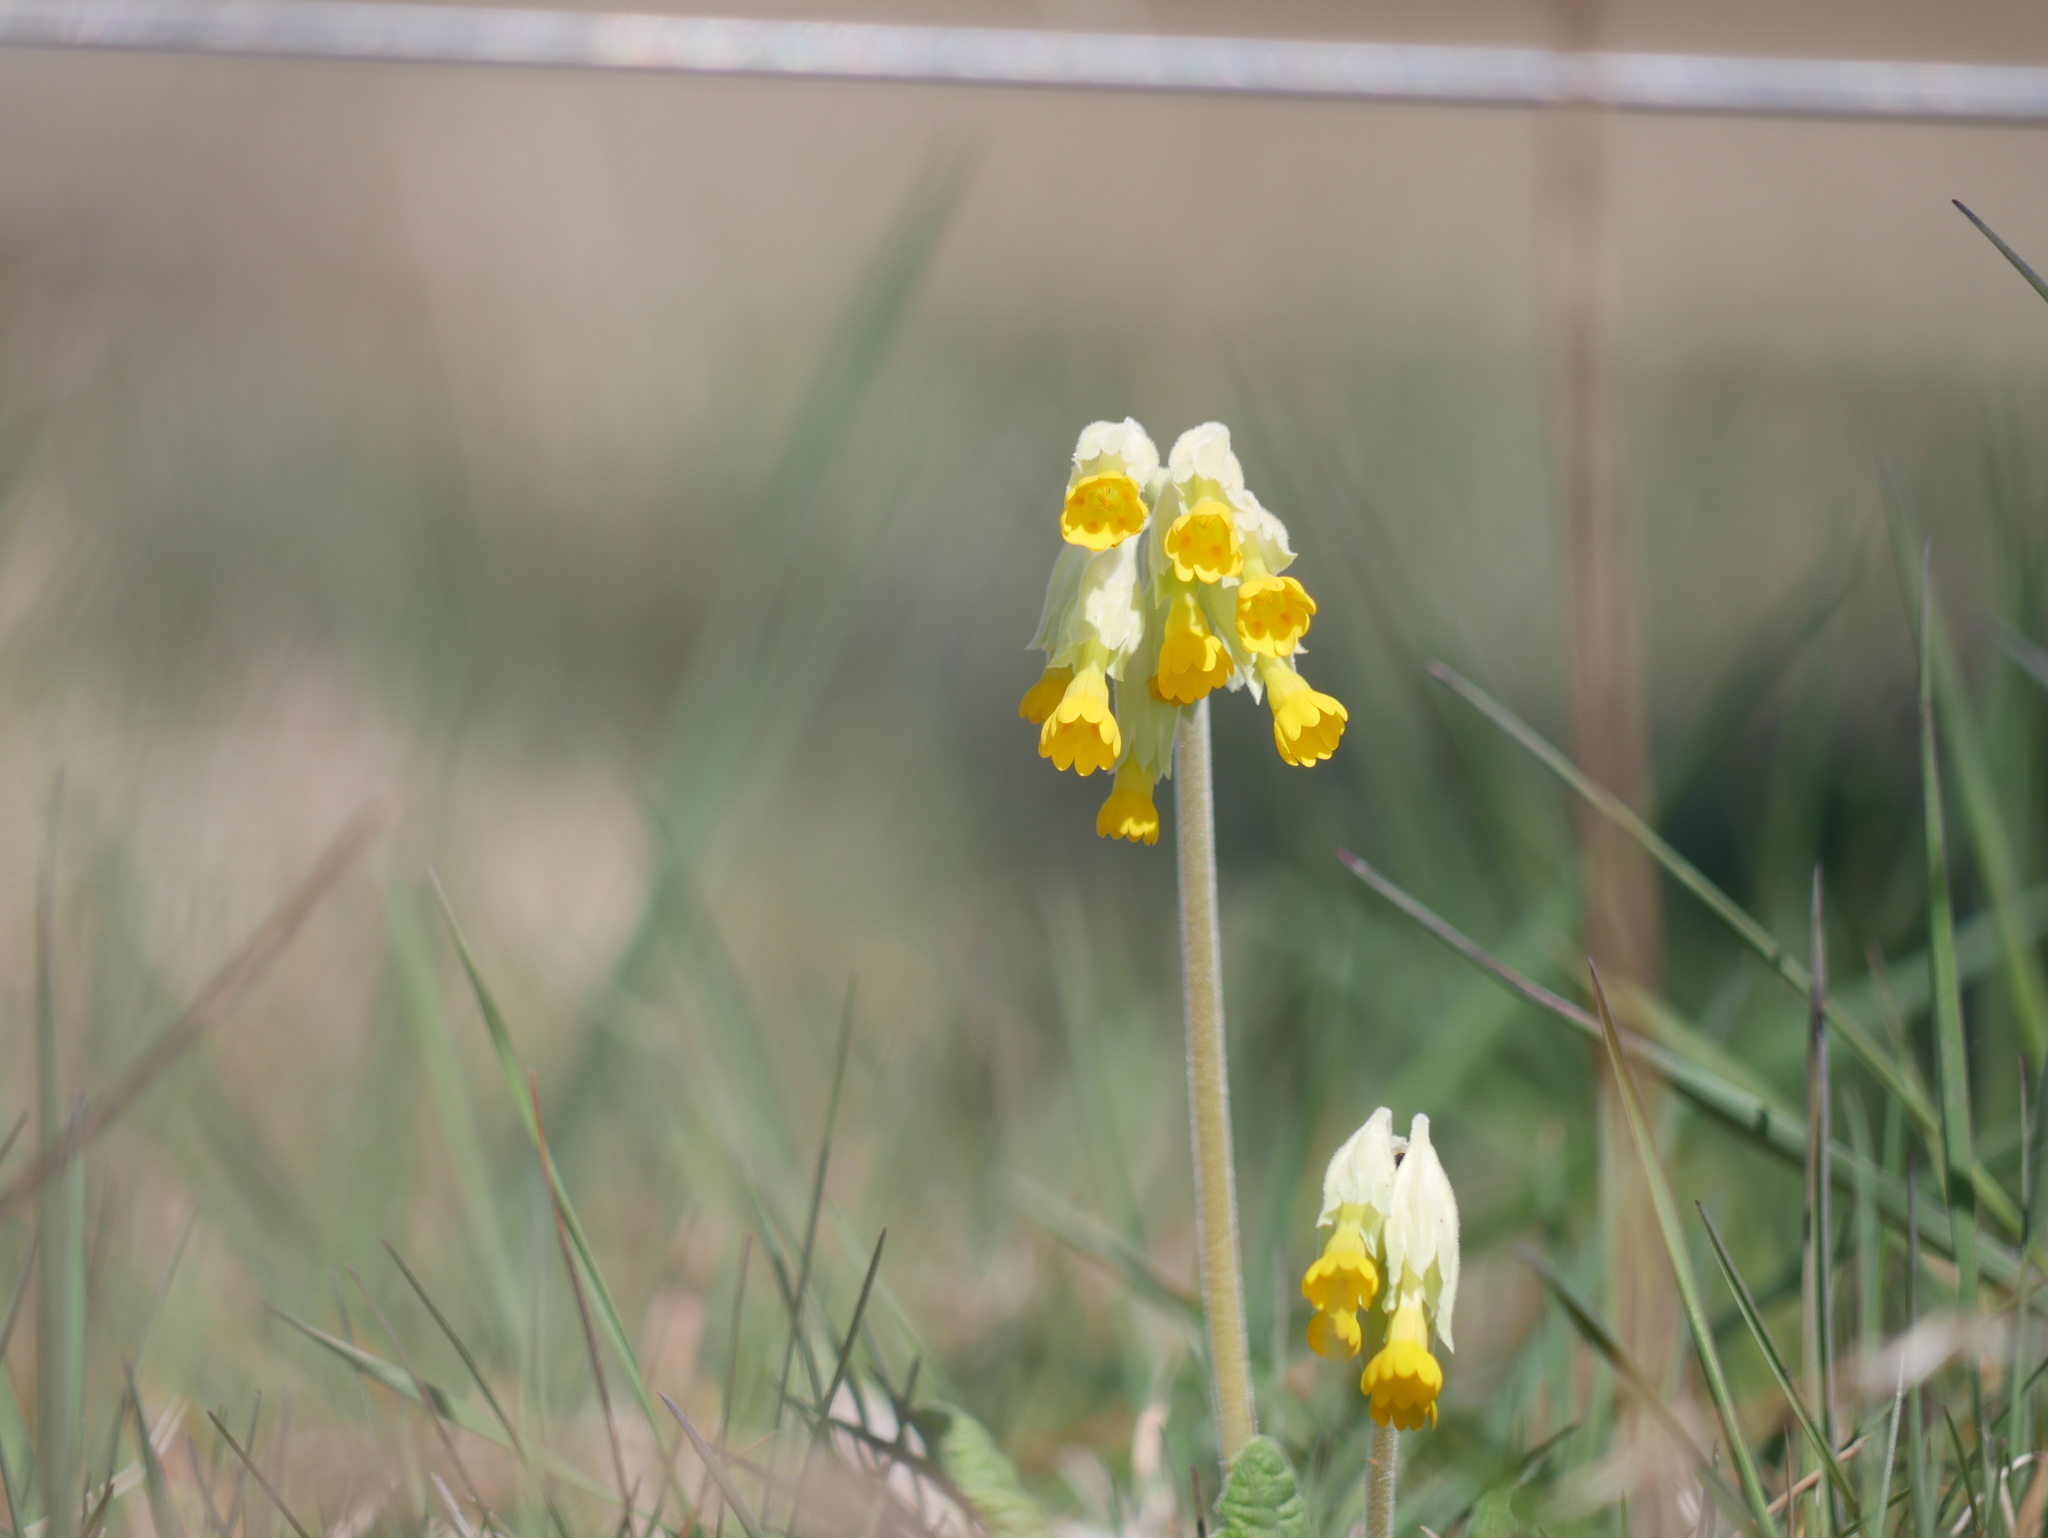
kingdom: Plantae
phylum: Tracheophyta
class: Magnoliopsida
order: Ericales
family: Primulaceae
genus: Primula
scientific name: Primula veris
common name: Cowslip
